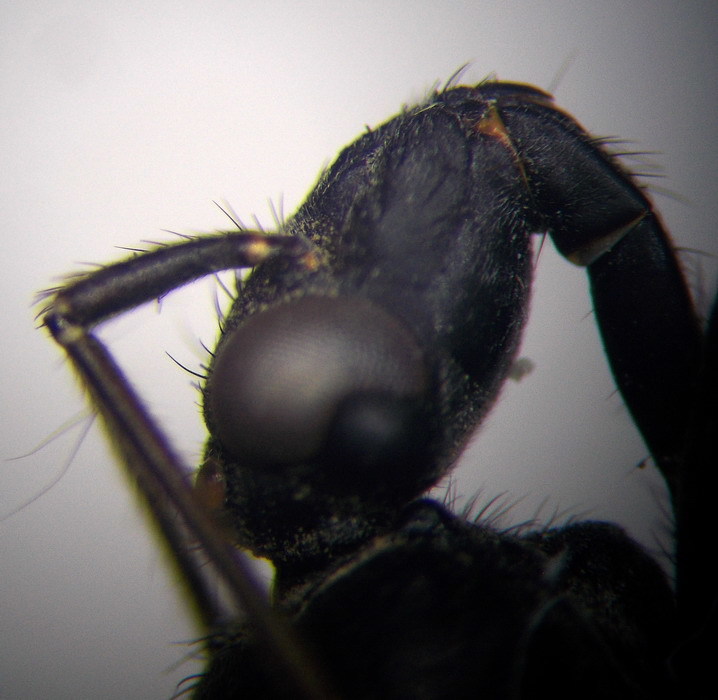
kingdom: Animalia
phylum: Arthropoda
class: Insecta
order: Hemiptera
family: Reduviidae
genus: Ectomocoris
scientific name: Ectomocoris caucasicus
